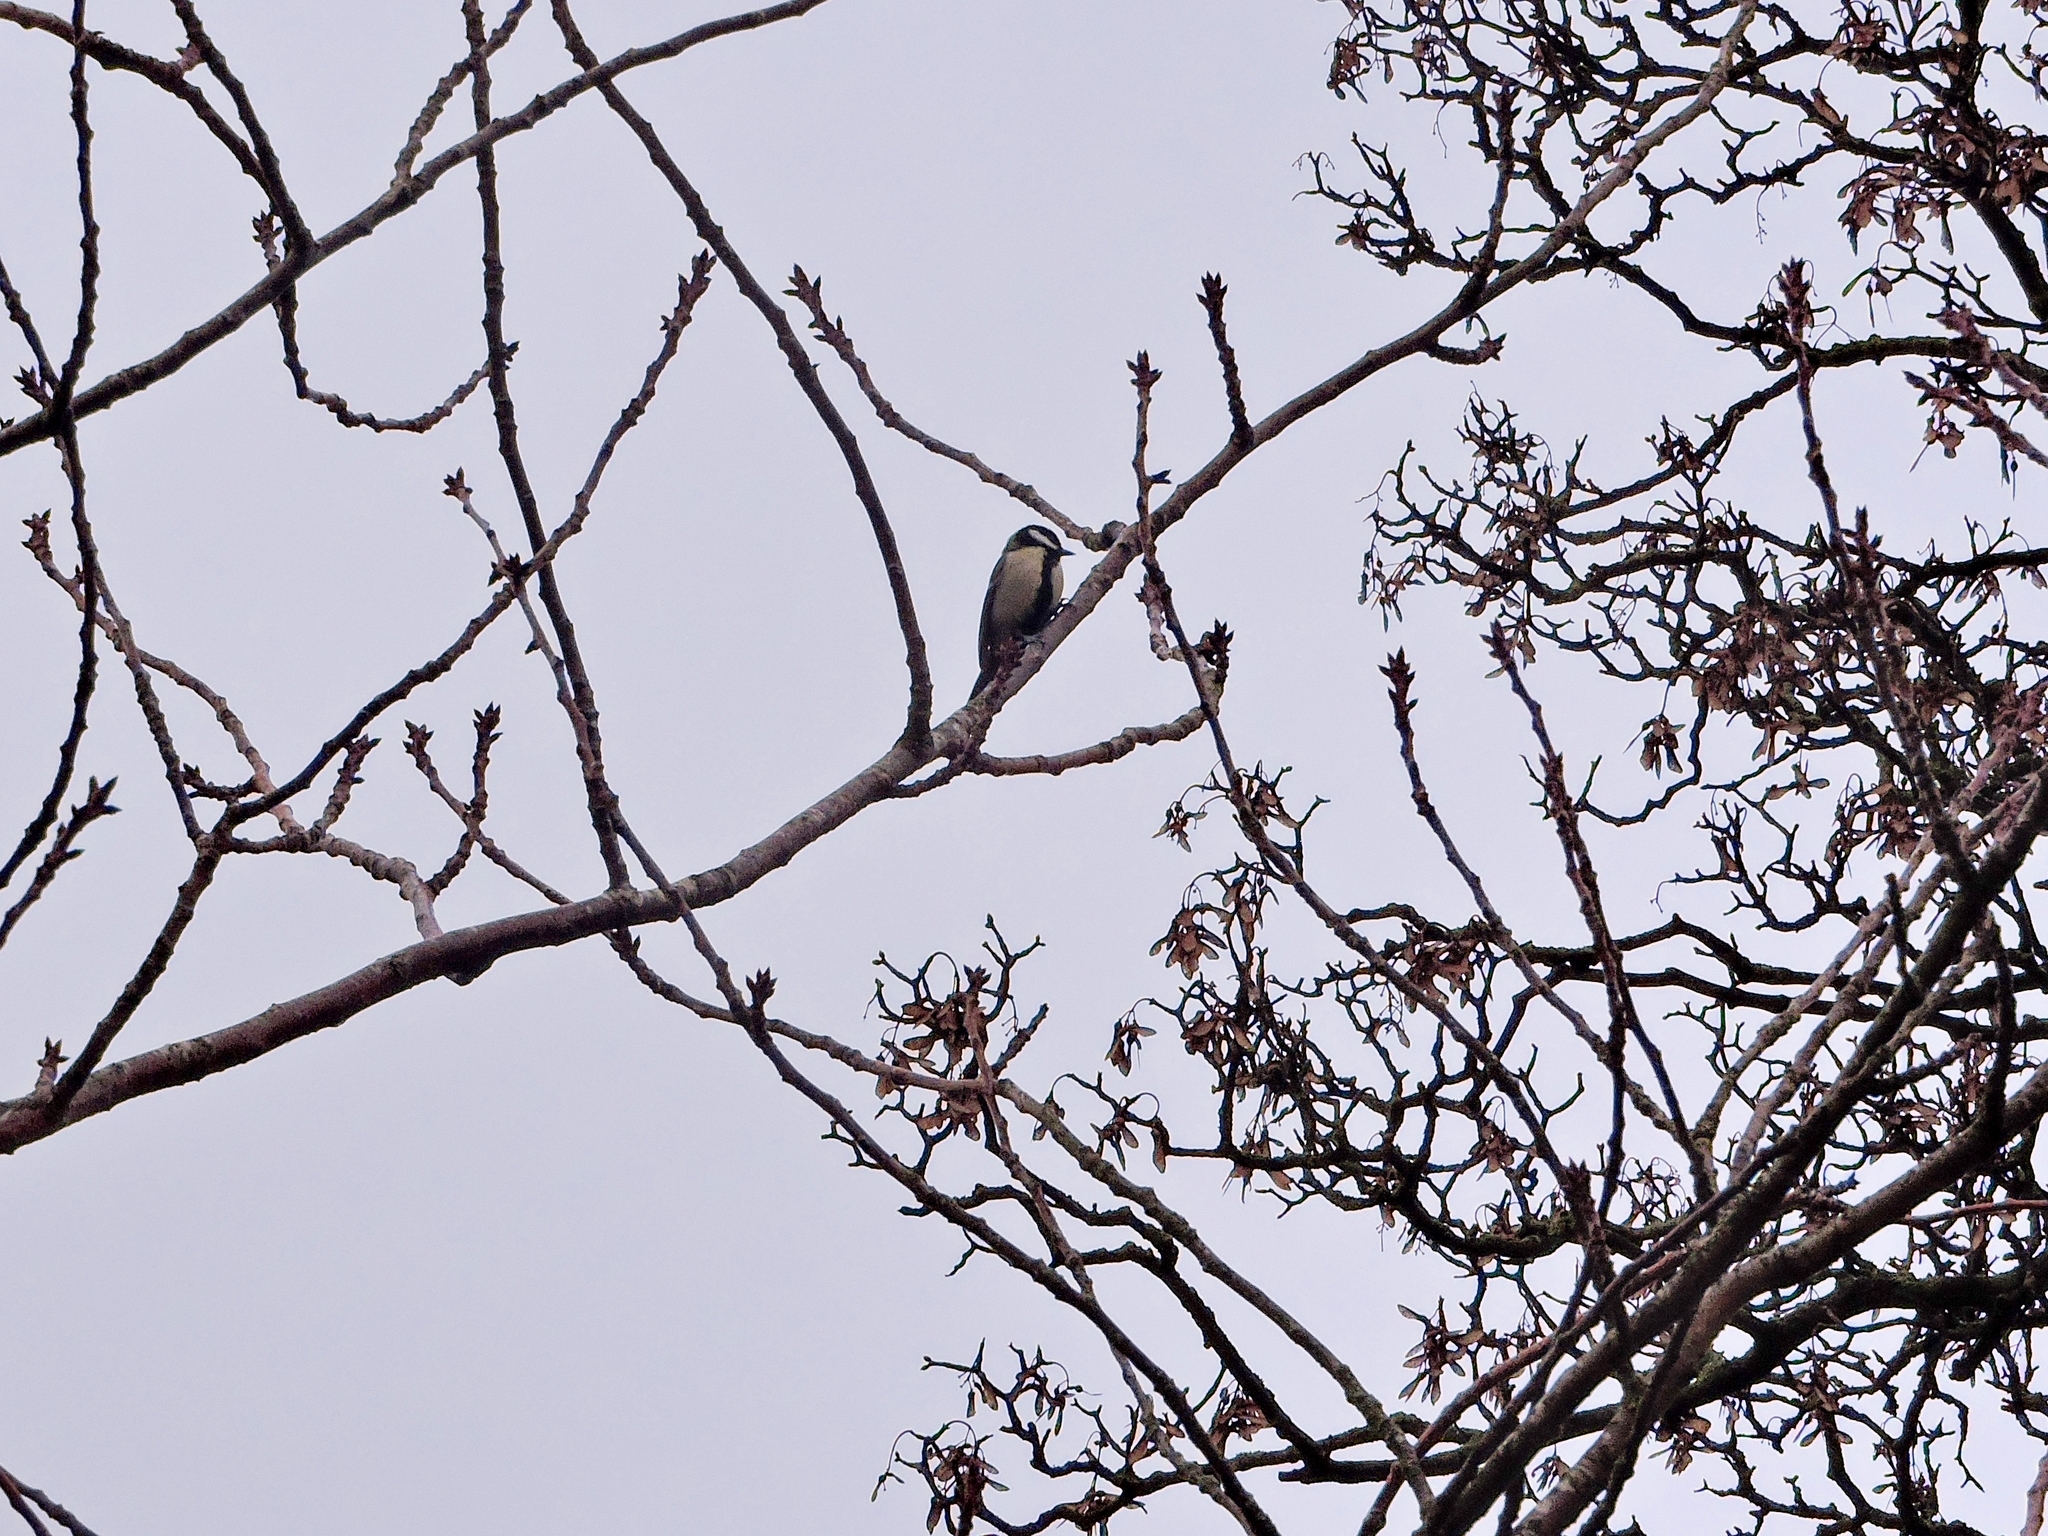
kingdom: Animalia
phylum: Chordata
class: Aves
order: Passeriformes
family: Paridae
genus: Parus
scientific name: Parus major
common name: Great tit
